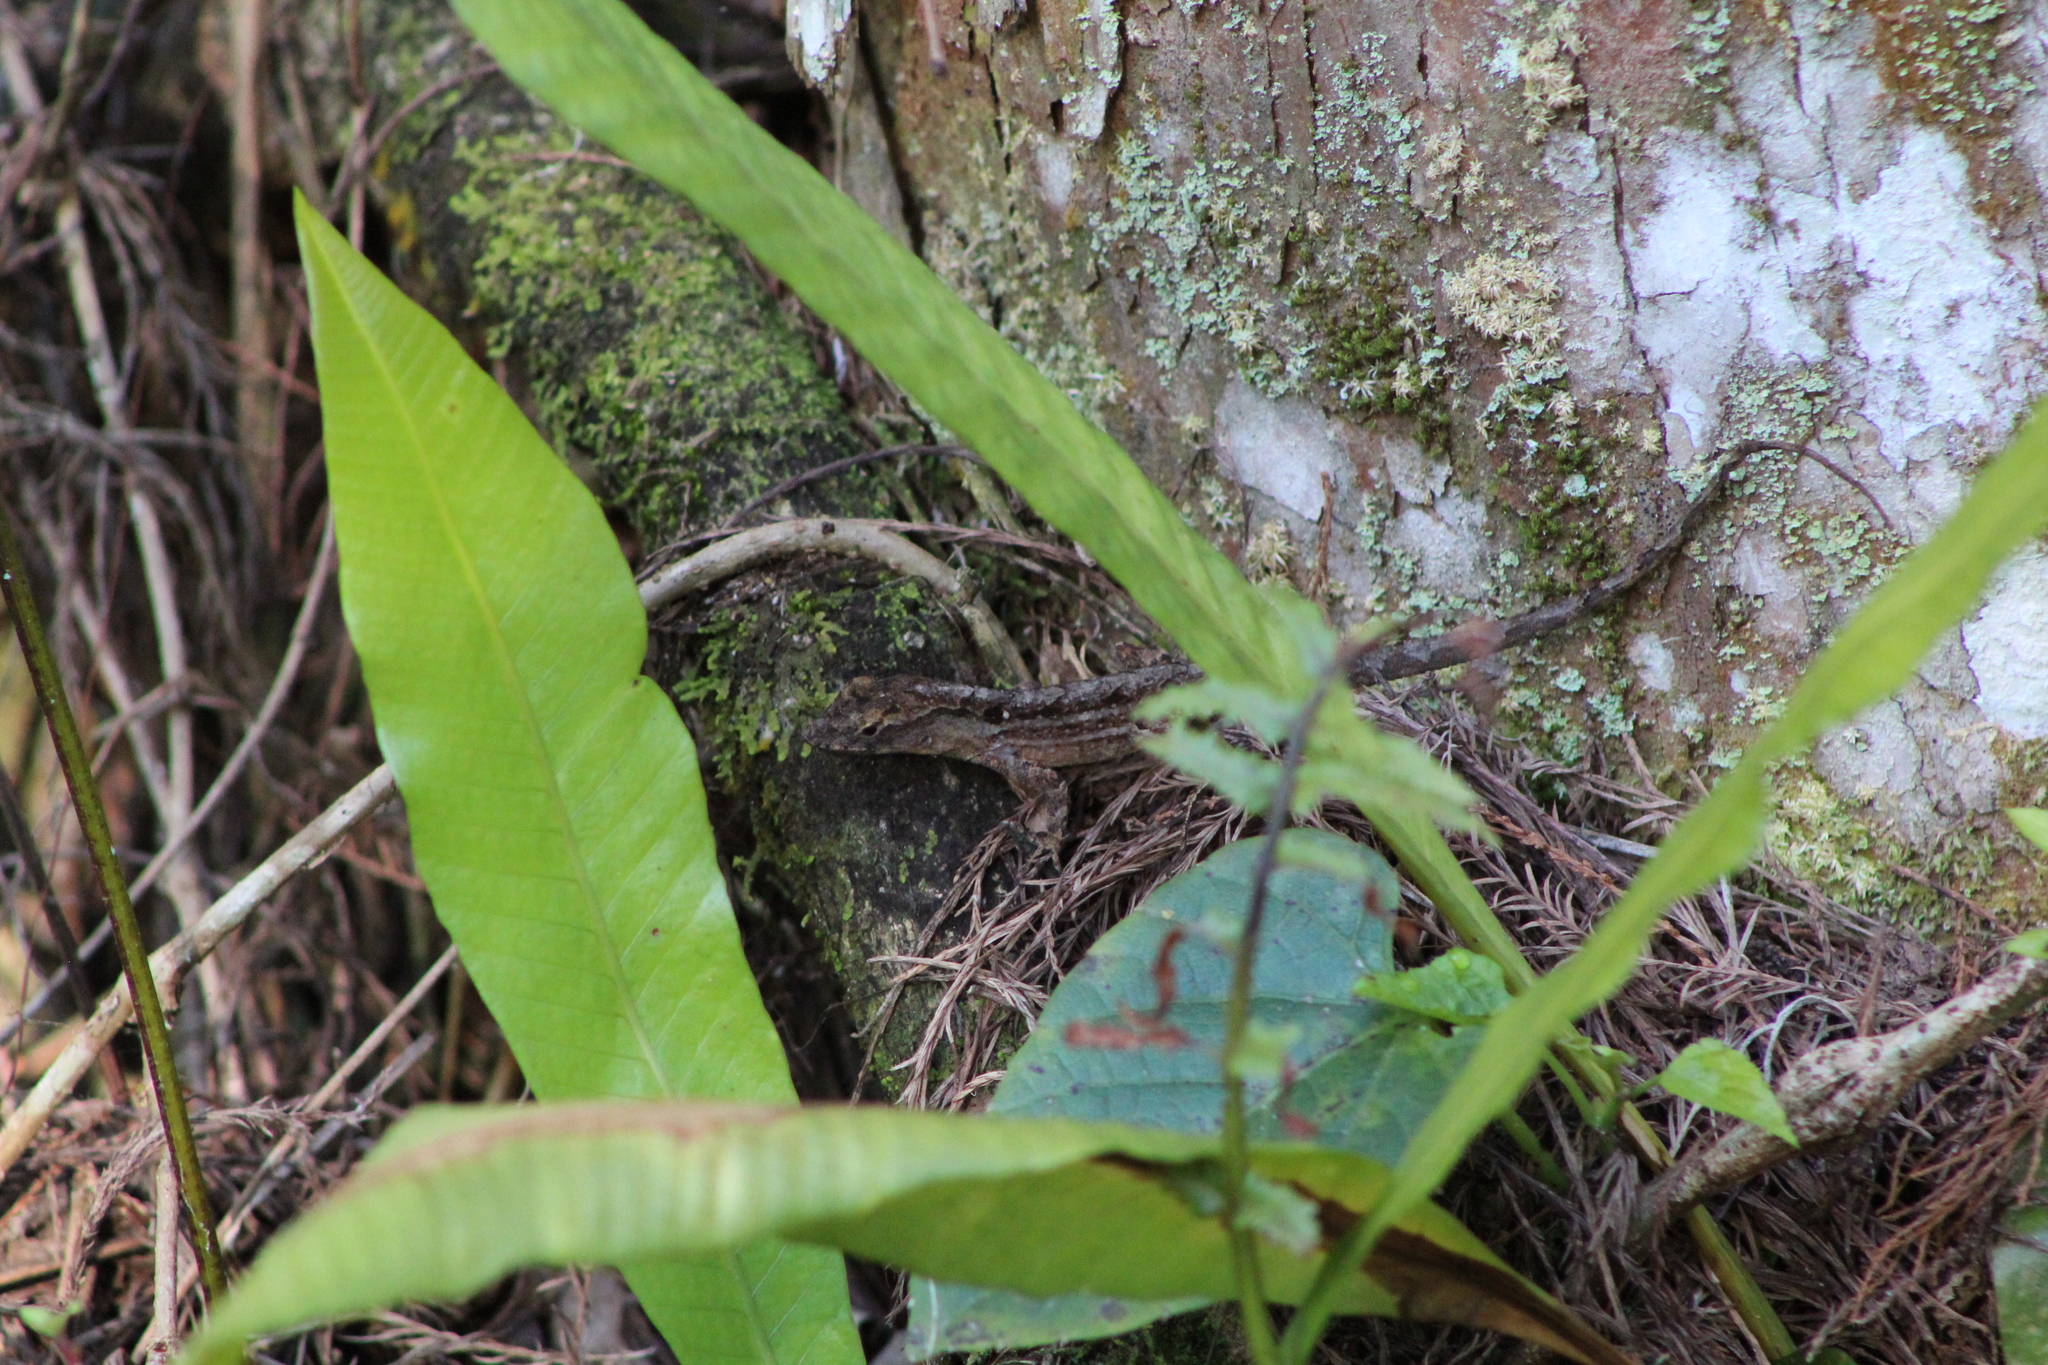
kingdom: Animalia
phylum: Chordata
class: Squamata
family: Dactyloidae
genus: Anolis
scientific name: Anolis sagrei
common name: Brown anole
